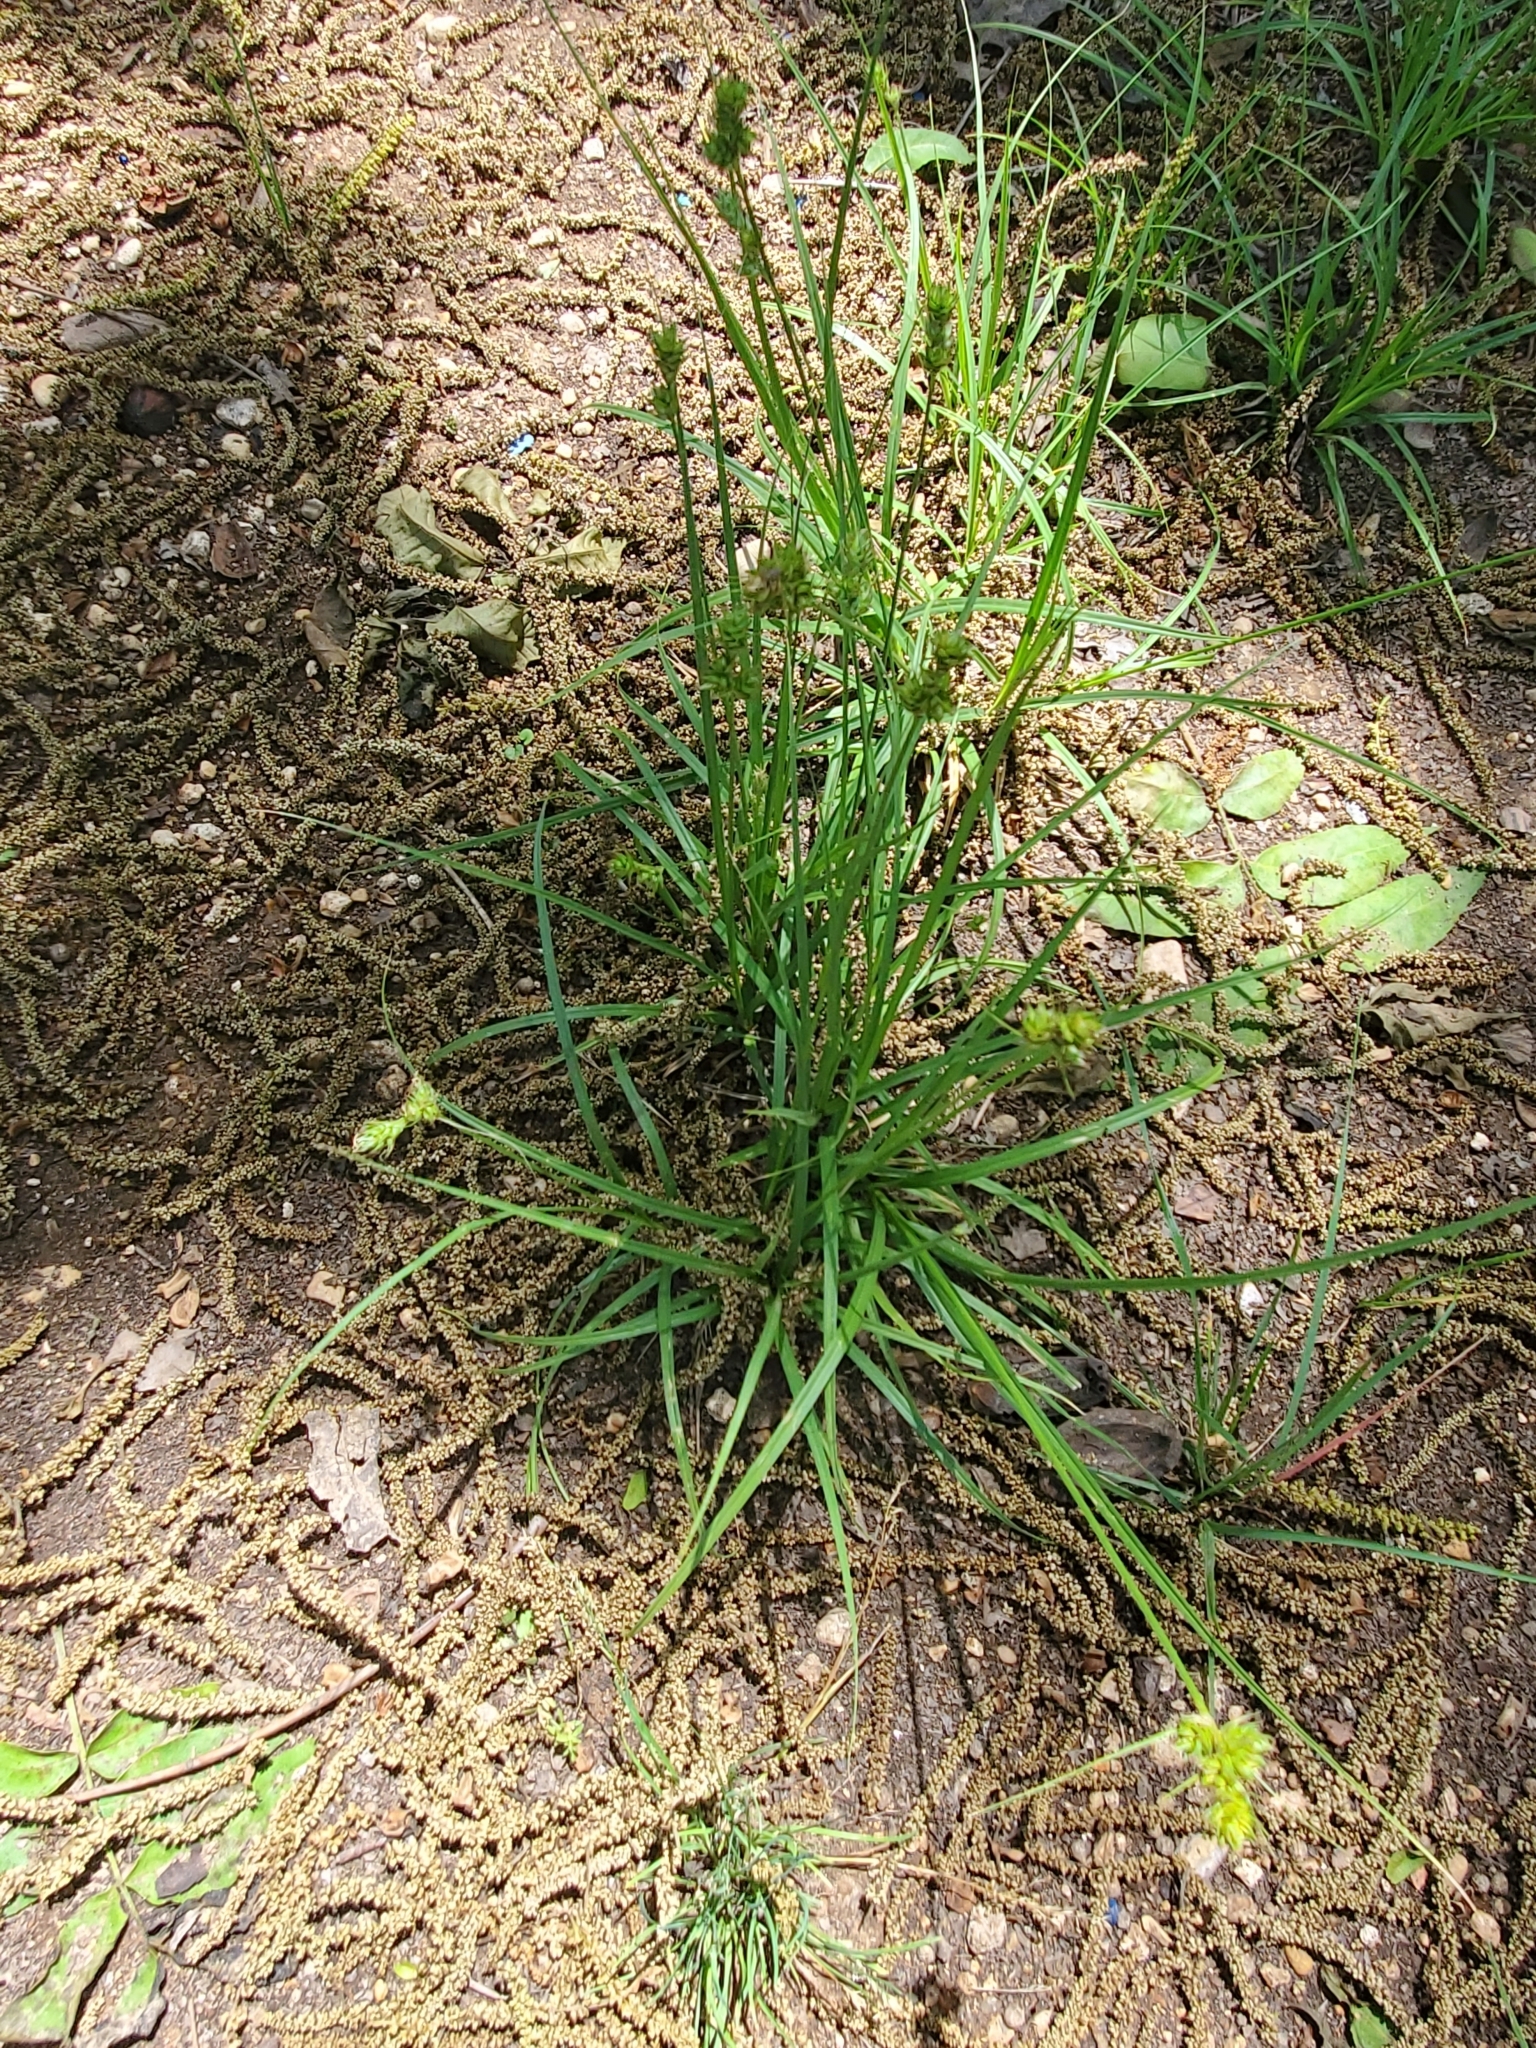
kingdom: Plantae
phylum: Tracheophyta
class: Liliopsida
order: Poales
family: Cyperaceae
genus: Carex
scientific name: Carex muehlenbergii
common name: Muhlenberg's bracted sedge
